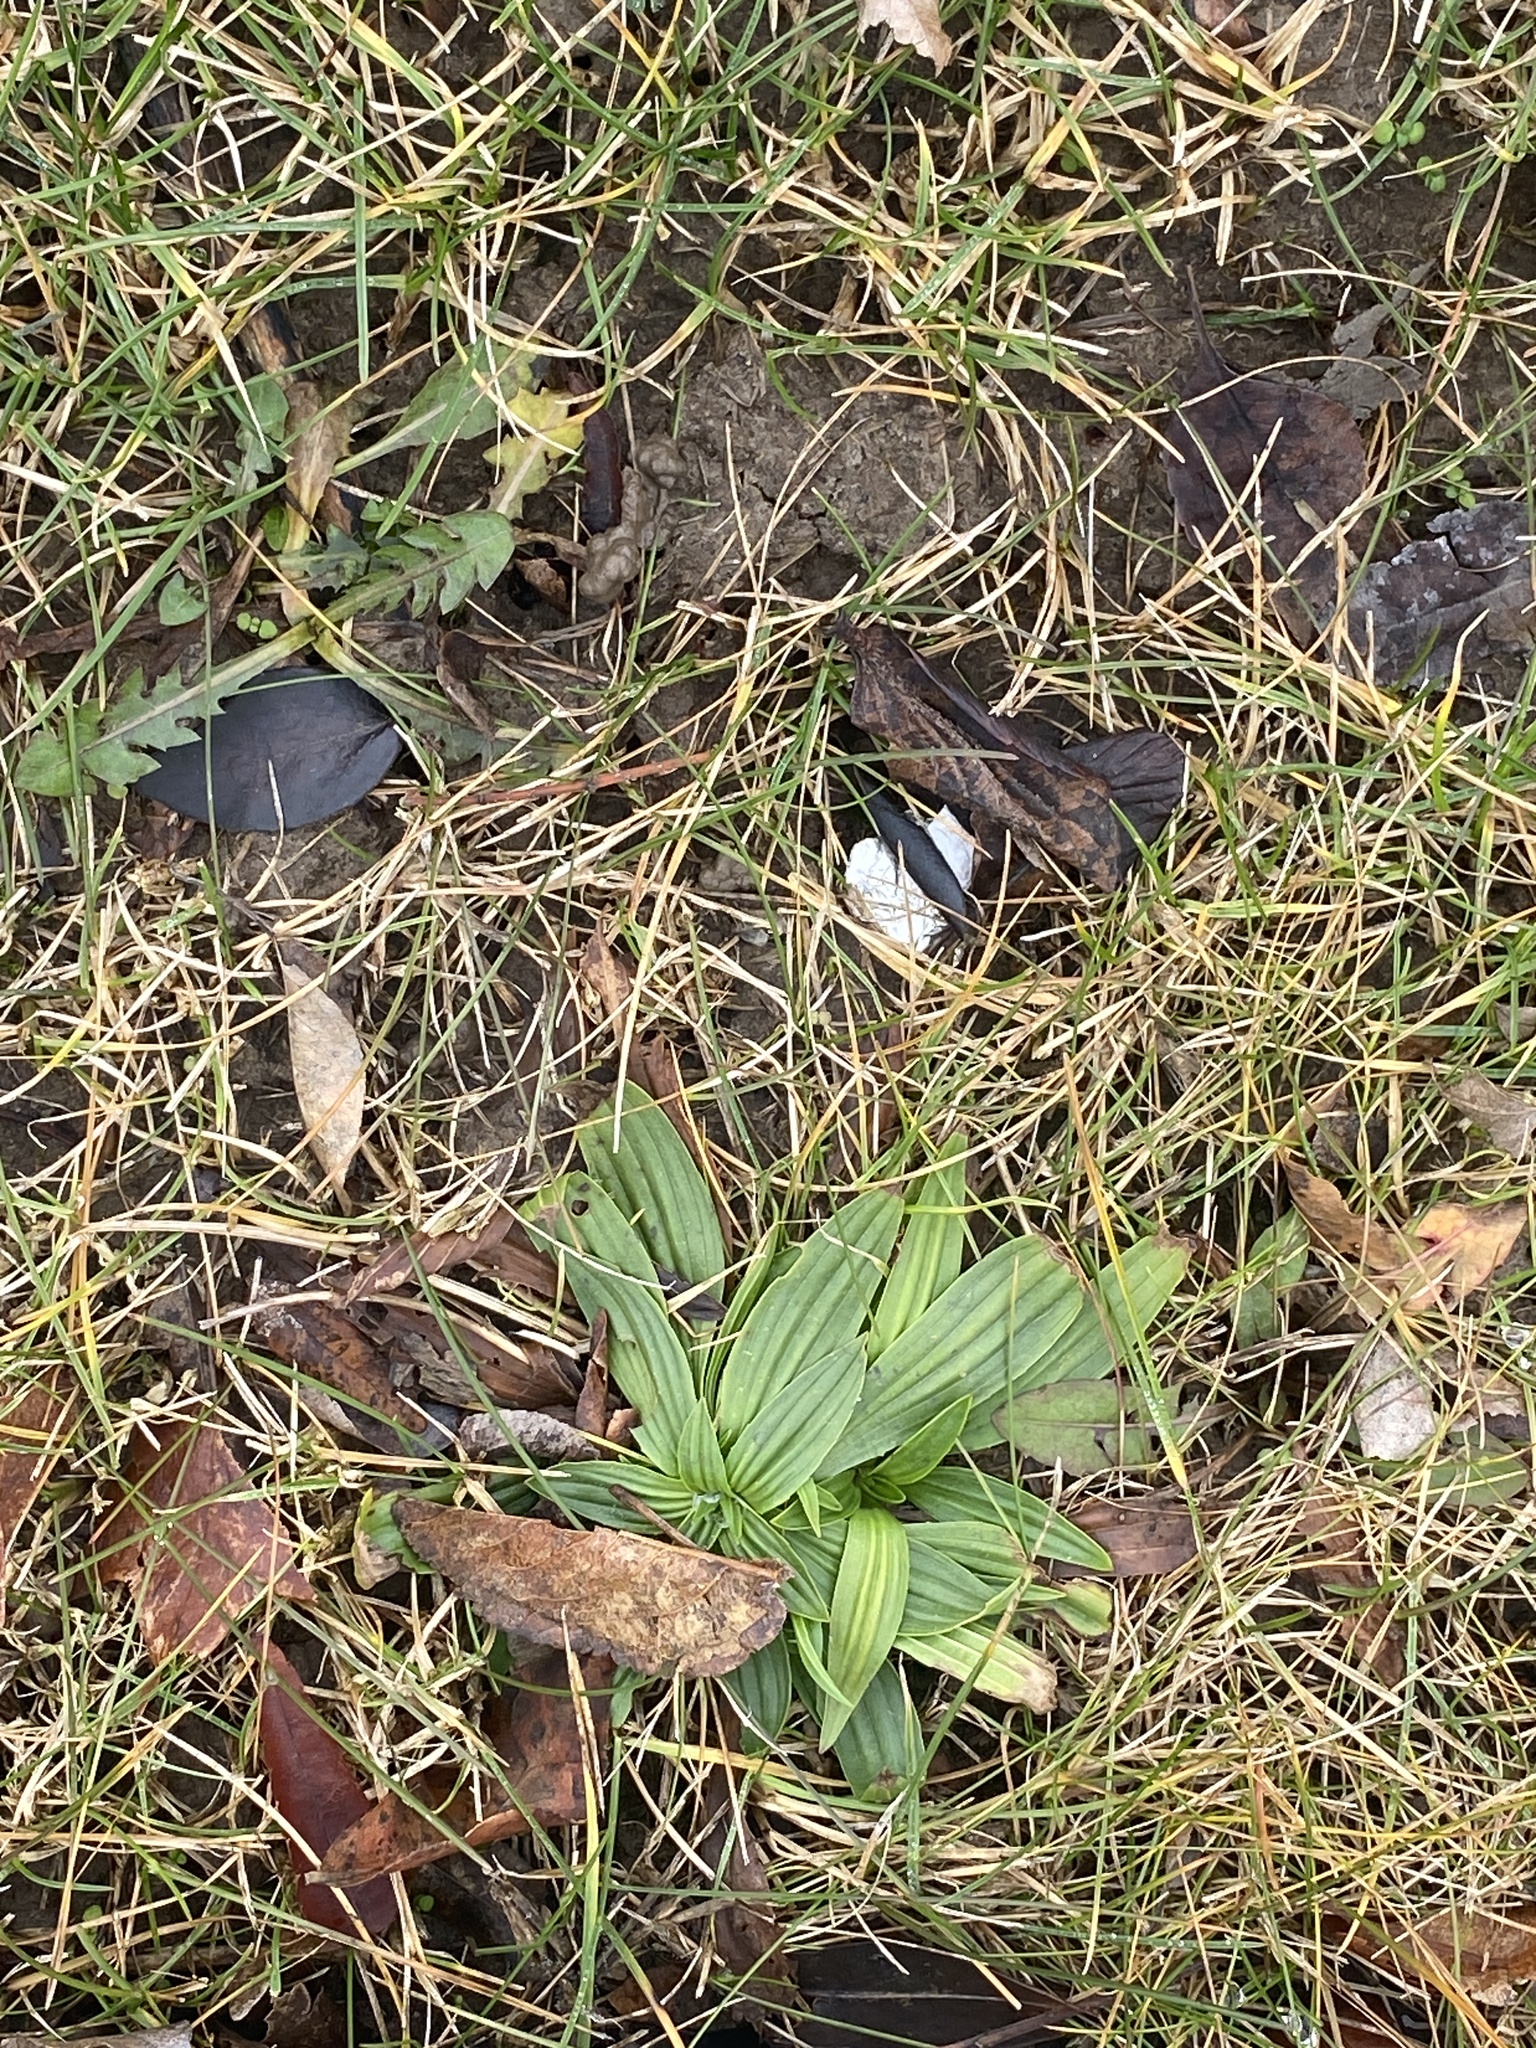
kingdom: Plantae
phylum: Tracheophyta
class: Magnoliopsida
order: Lamiales
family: Plantaginaceae
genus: Plantago
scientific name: Plantago lanceolata
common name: Ribwort plantain
